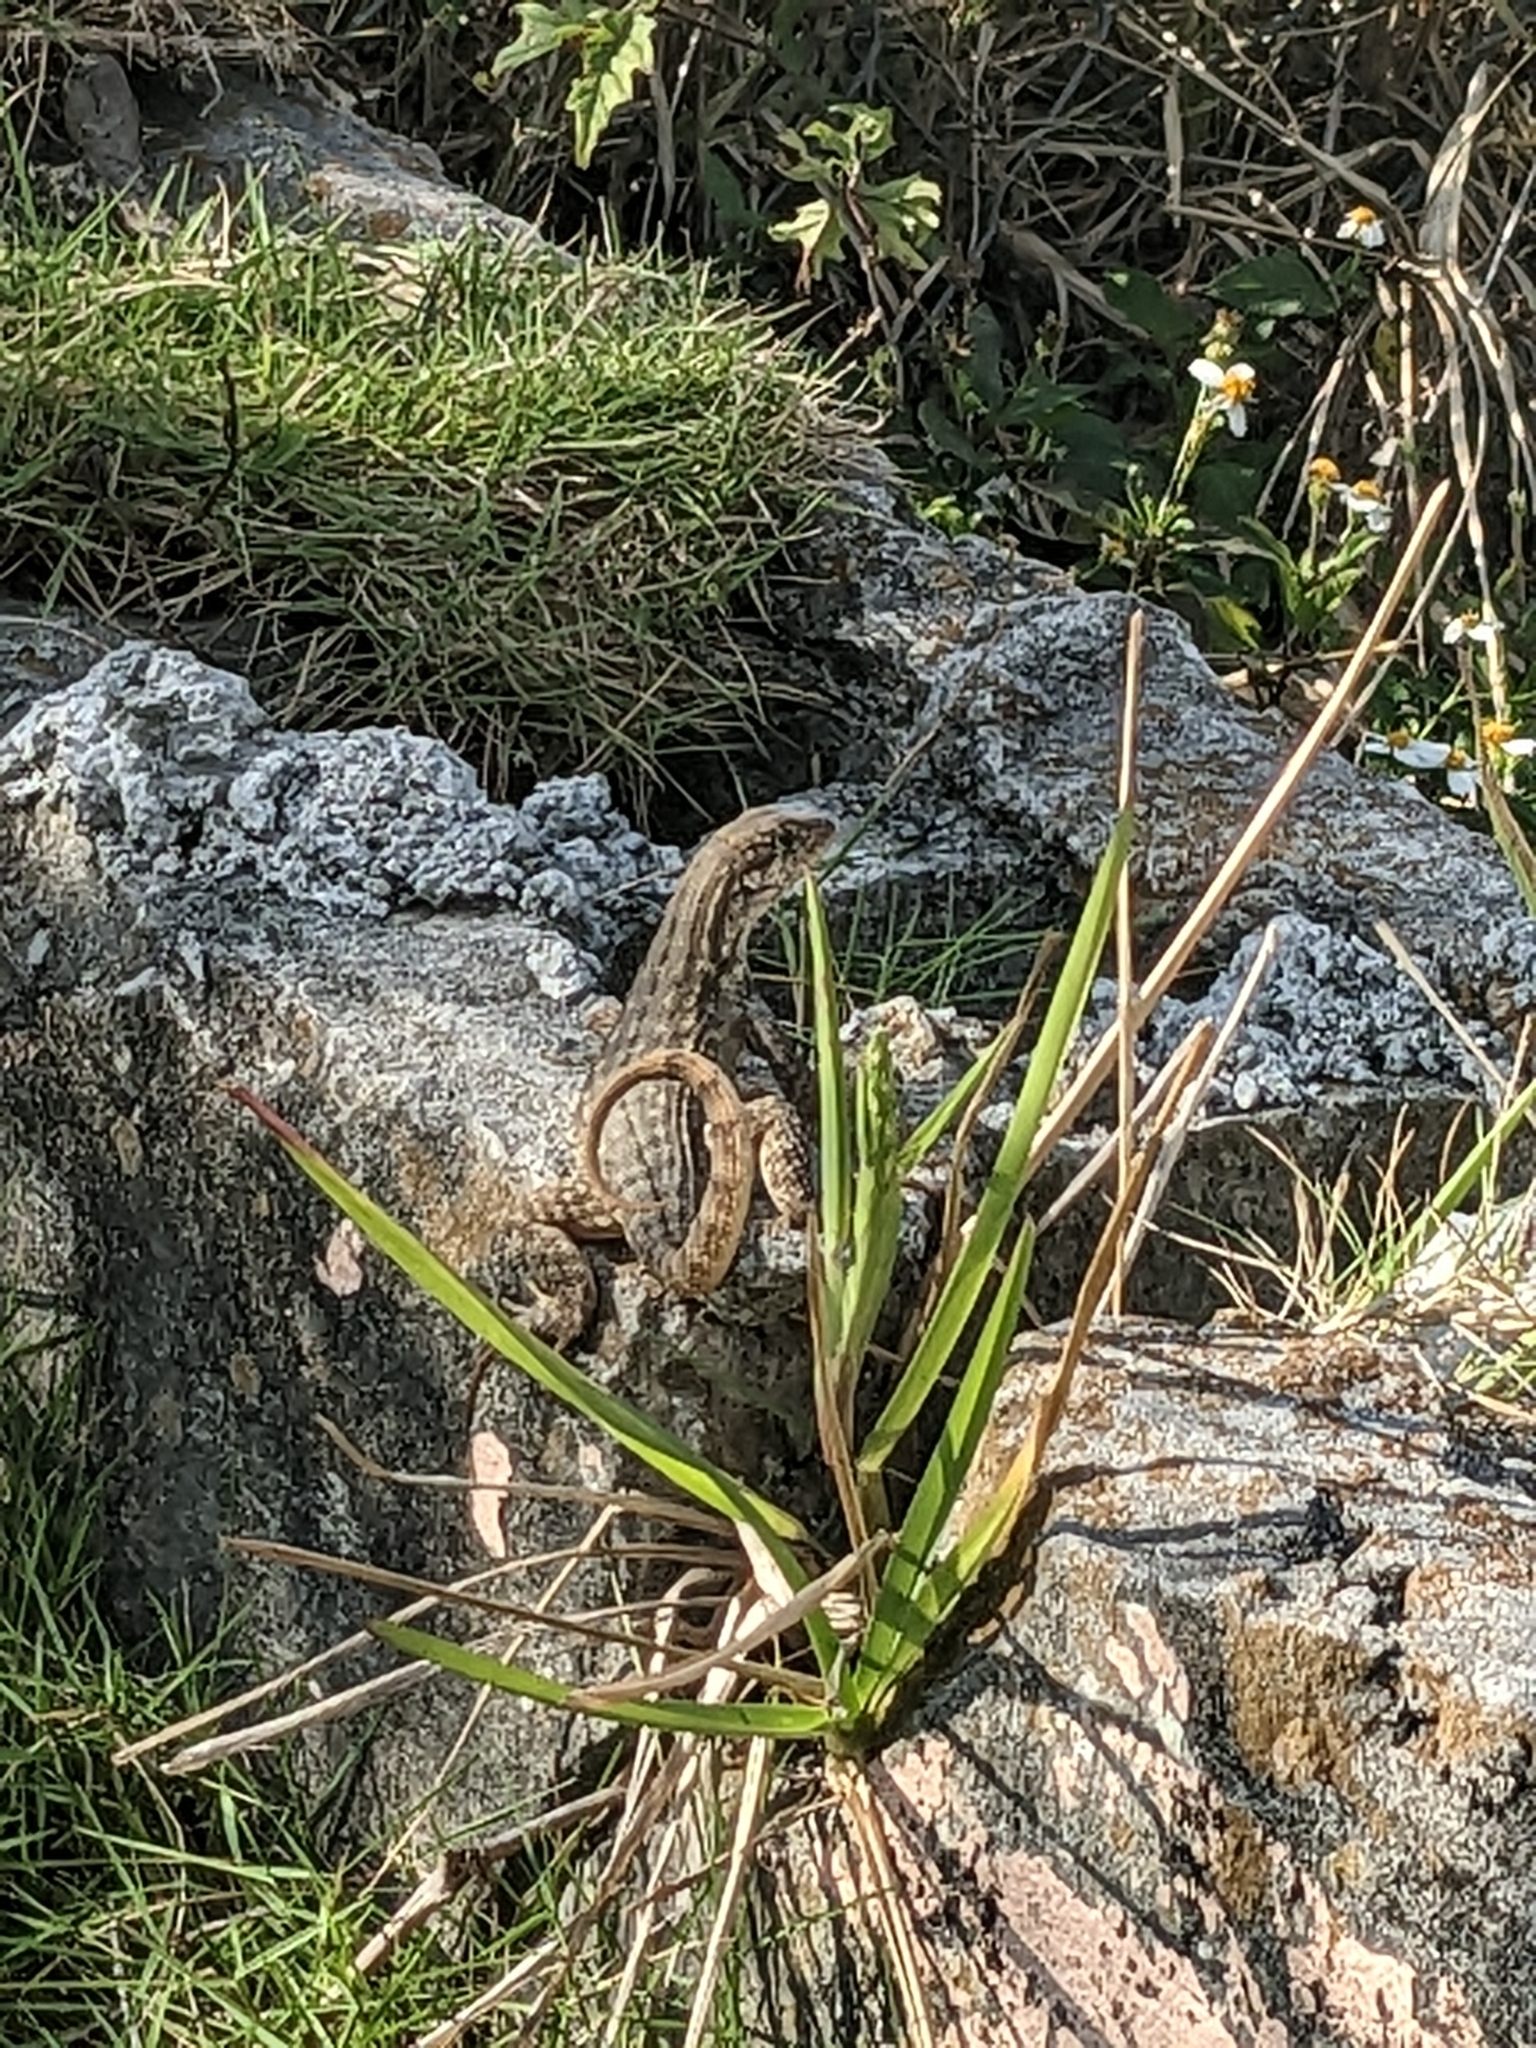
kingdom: Animalia
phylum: Chordata
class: Squamata
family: Leiocephalidae
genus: Leiocephalus
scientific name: Leiocephalus carinatus
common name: Northern curly-tailed lizard
